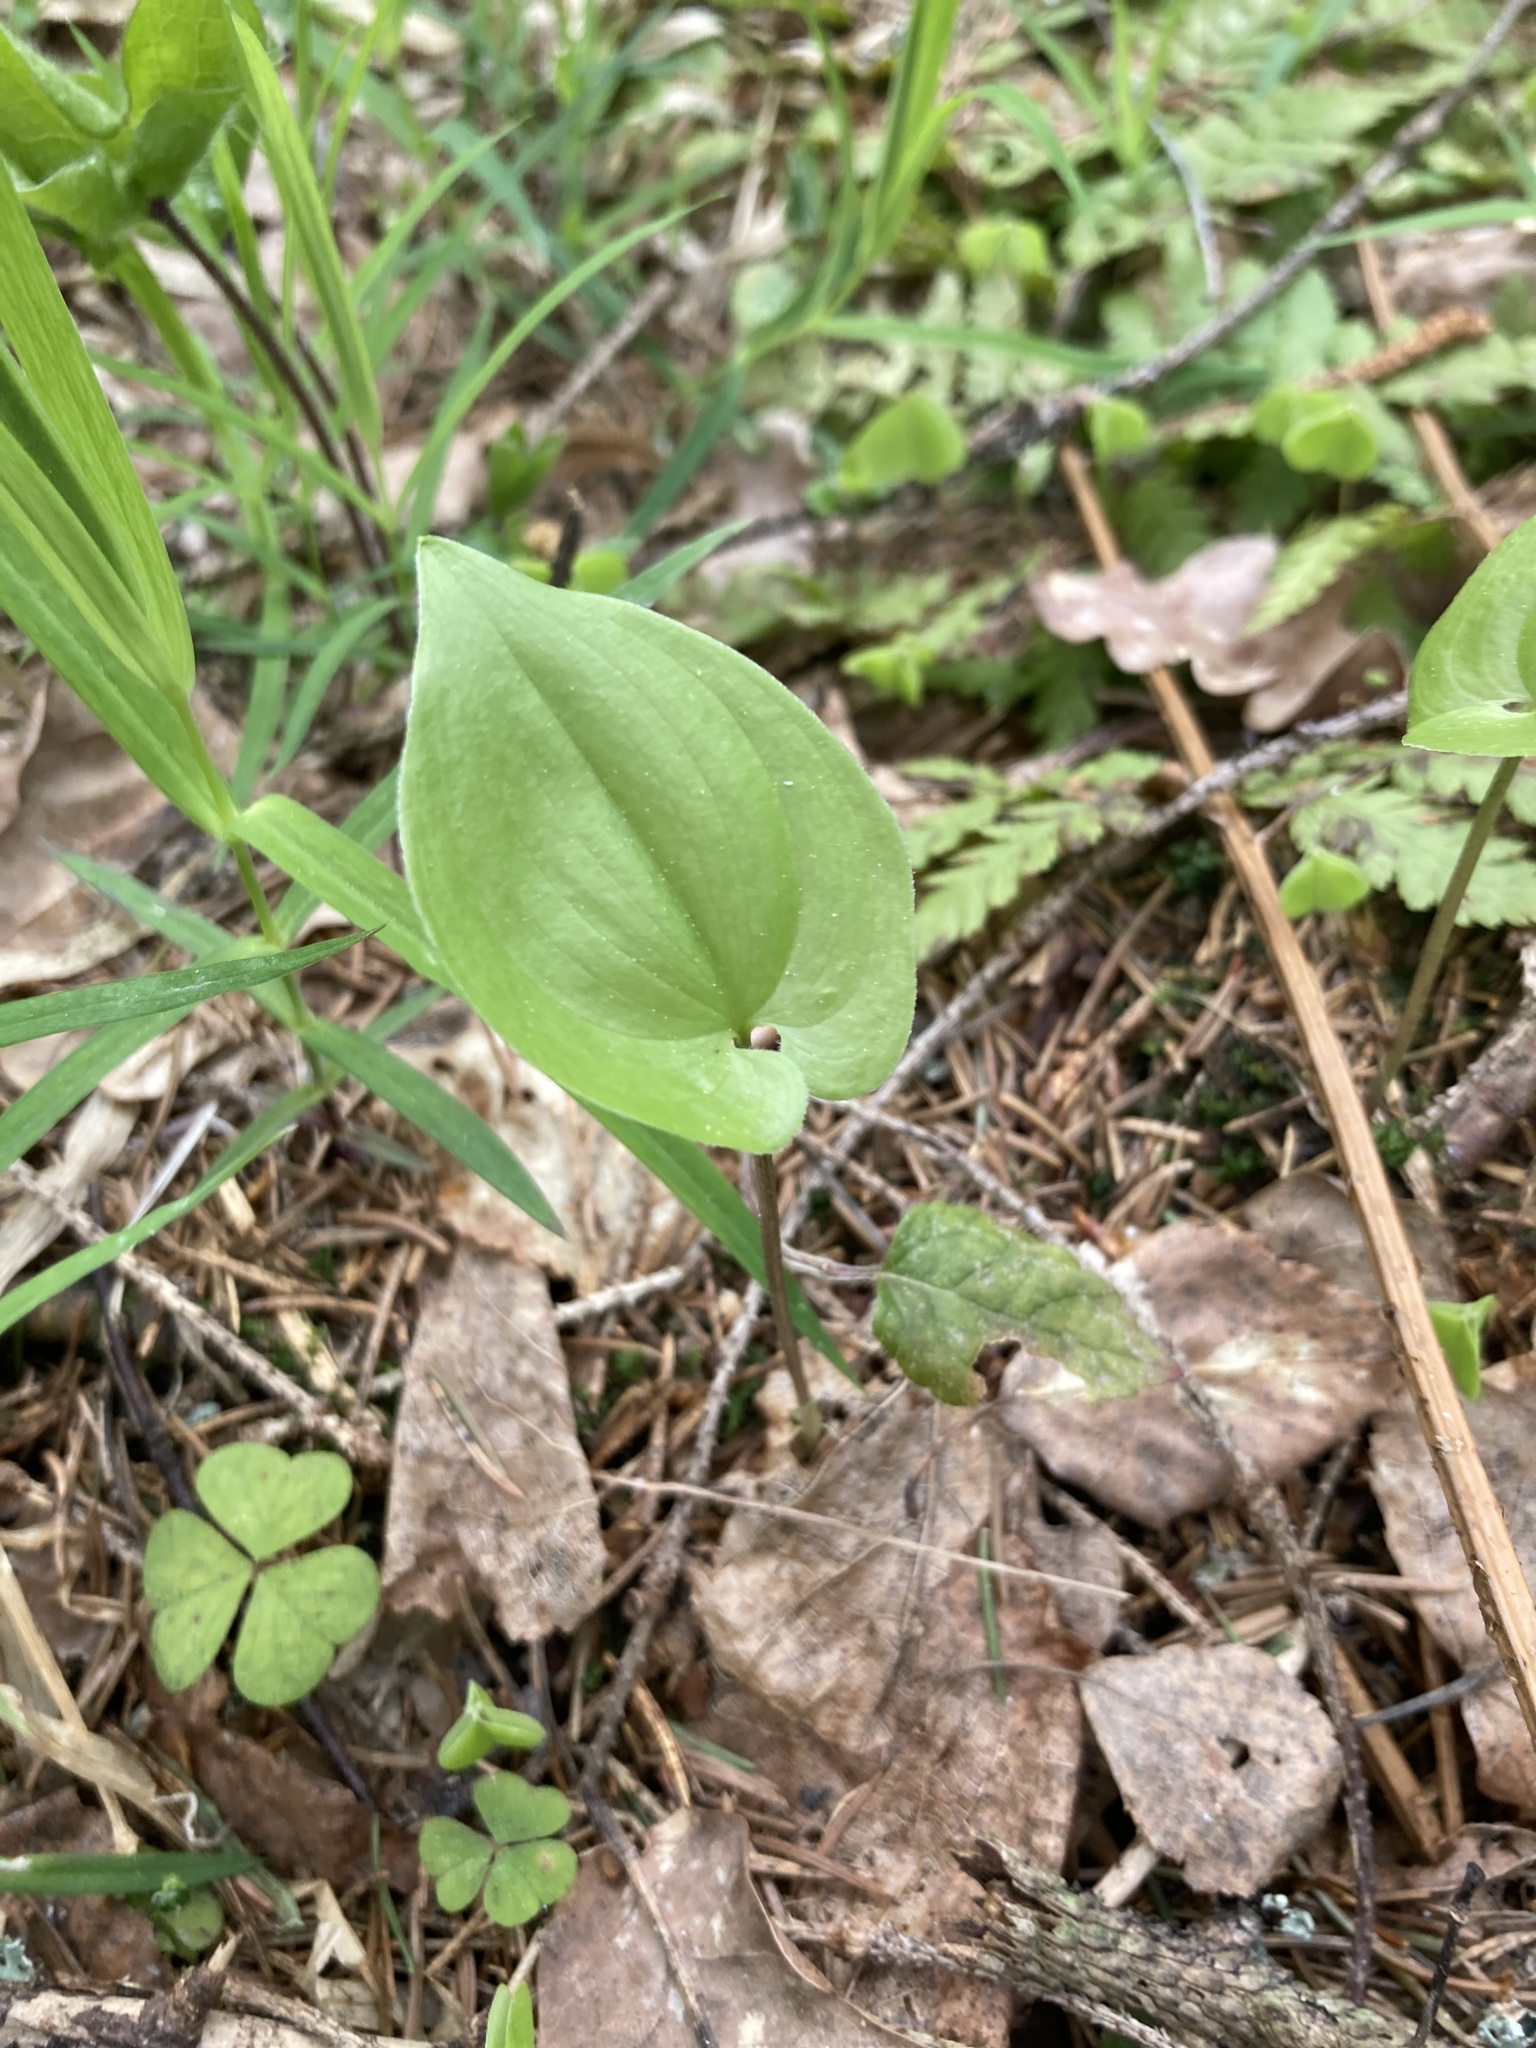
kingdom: Plantae
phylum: Tracheophyta
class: Liliopsida
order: Asparagales
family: Asparagaceae
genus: Maianthemum
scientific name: Maianthemum bifolium
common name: May lily
